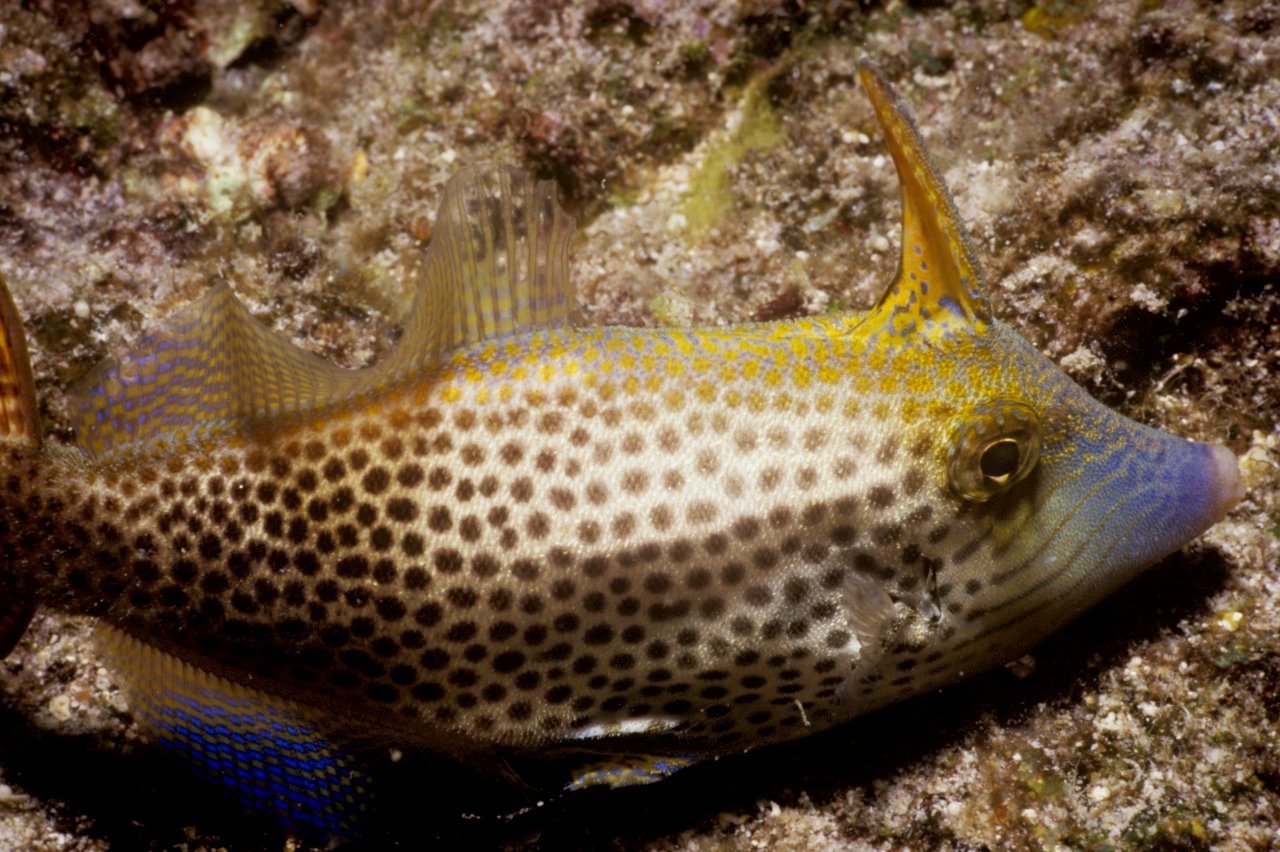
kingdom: Animalia
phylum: Chordata
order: Tetraodontiformes
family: Monacanthidae
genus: Pervagor
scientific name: Pervagor spilosoma
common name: Fantail filefish
